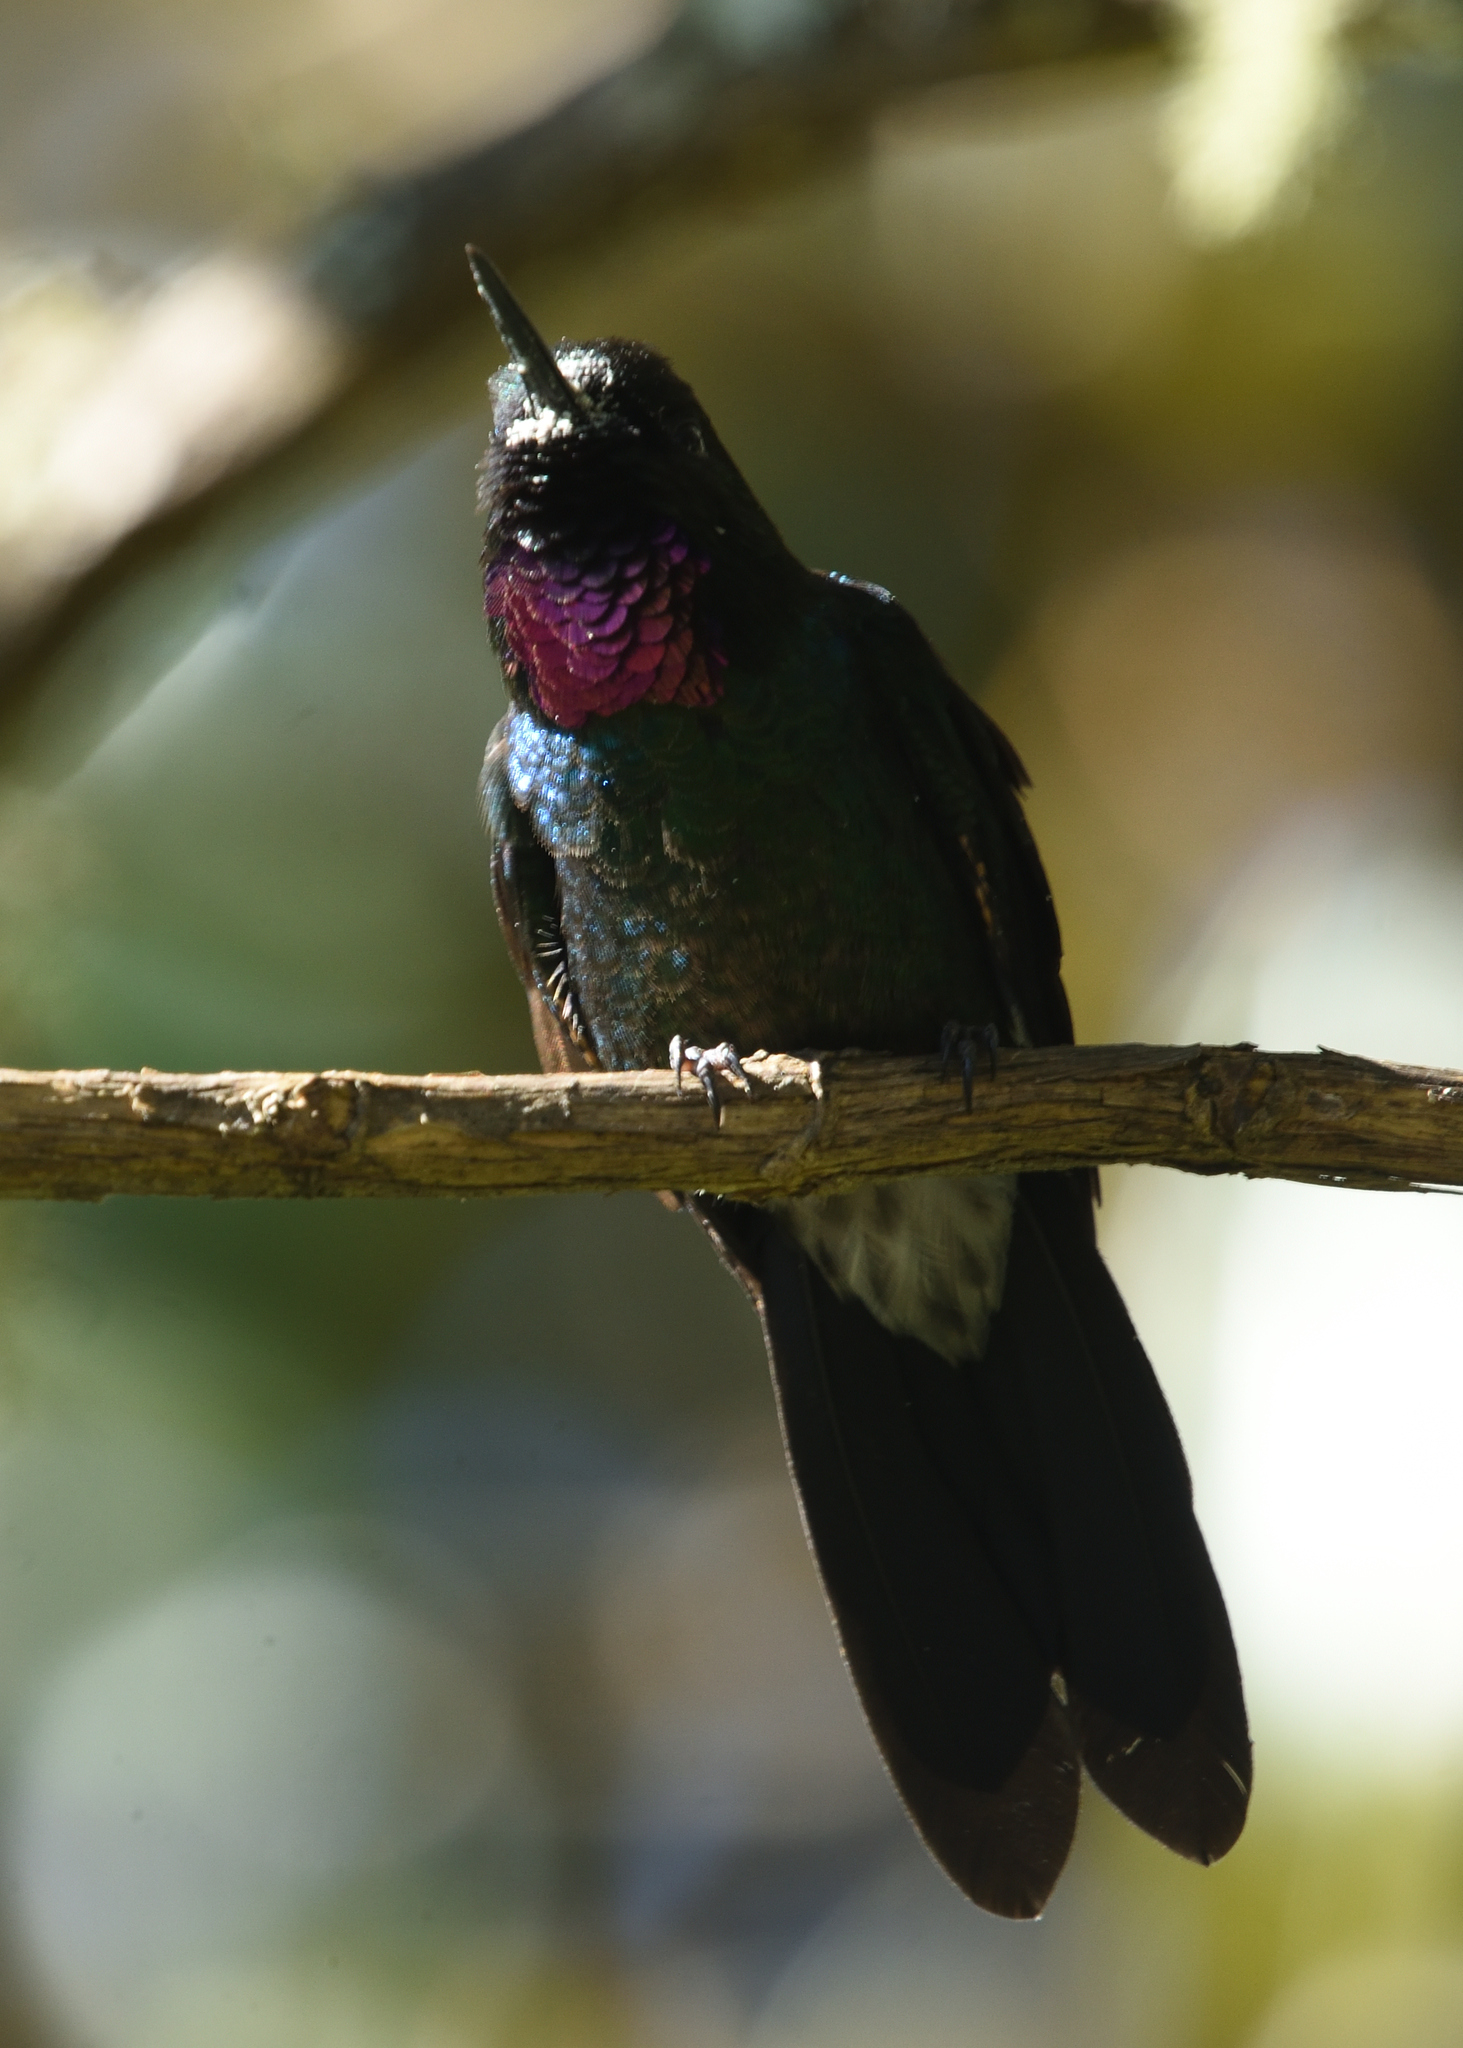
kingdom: Animalia
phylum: Chordata
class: Aves
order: Apodiformes
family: Trochilidae
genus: Heliangelus
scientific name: Heliangelus exortis
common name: Tourmaline sunangel
